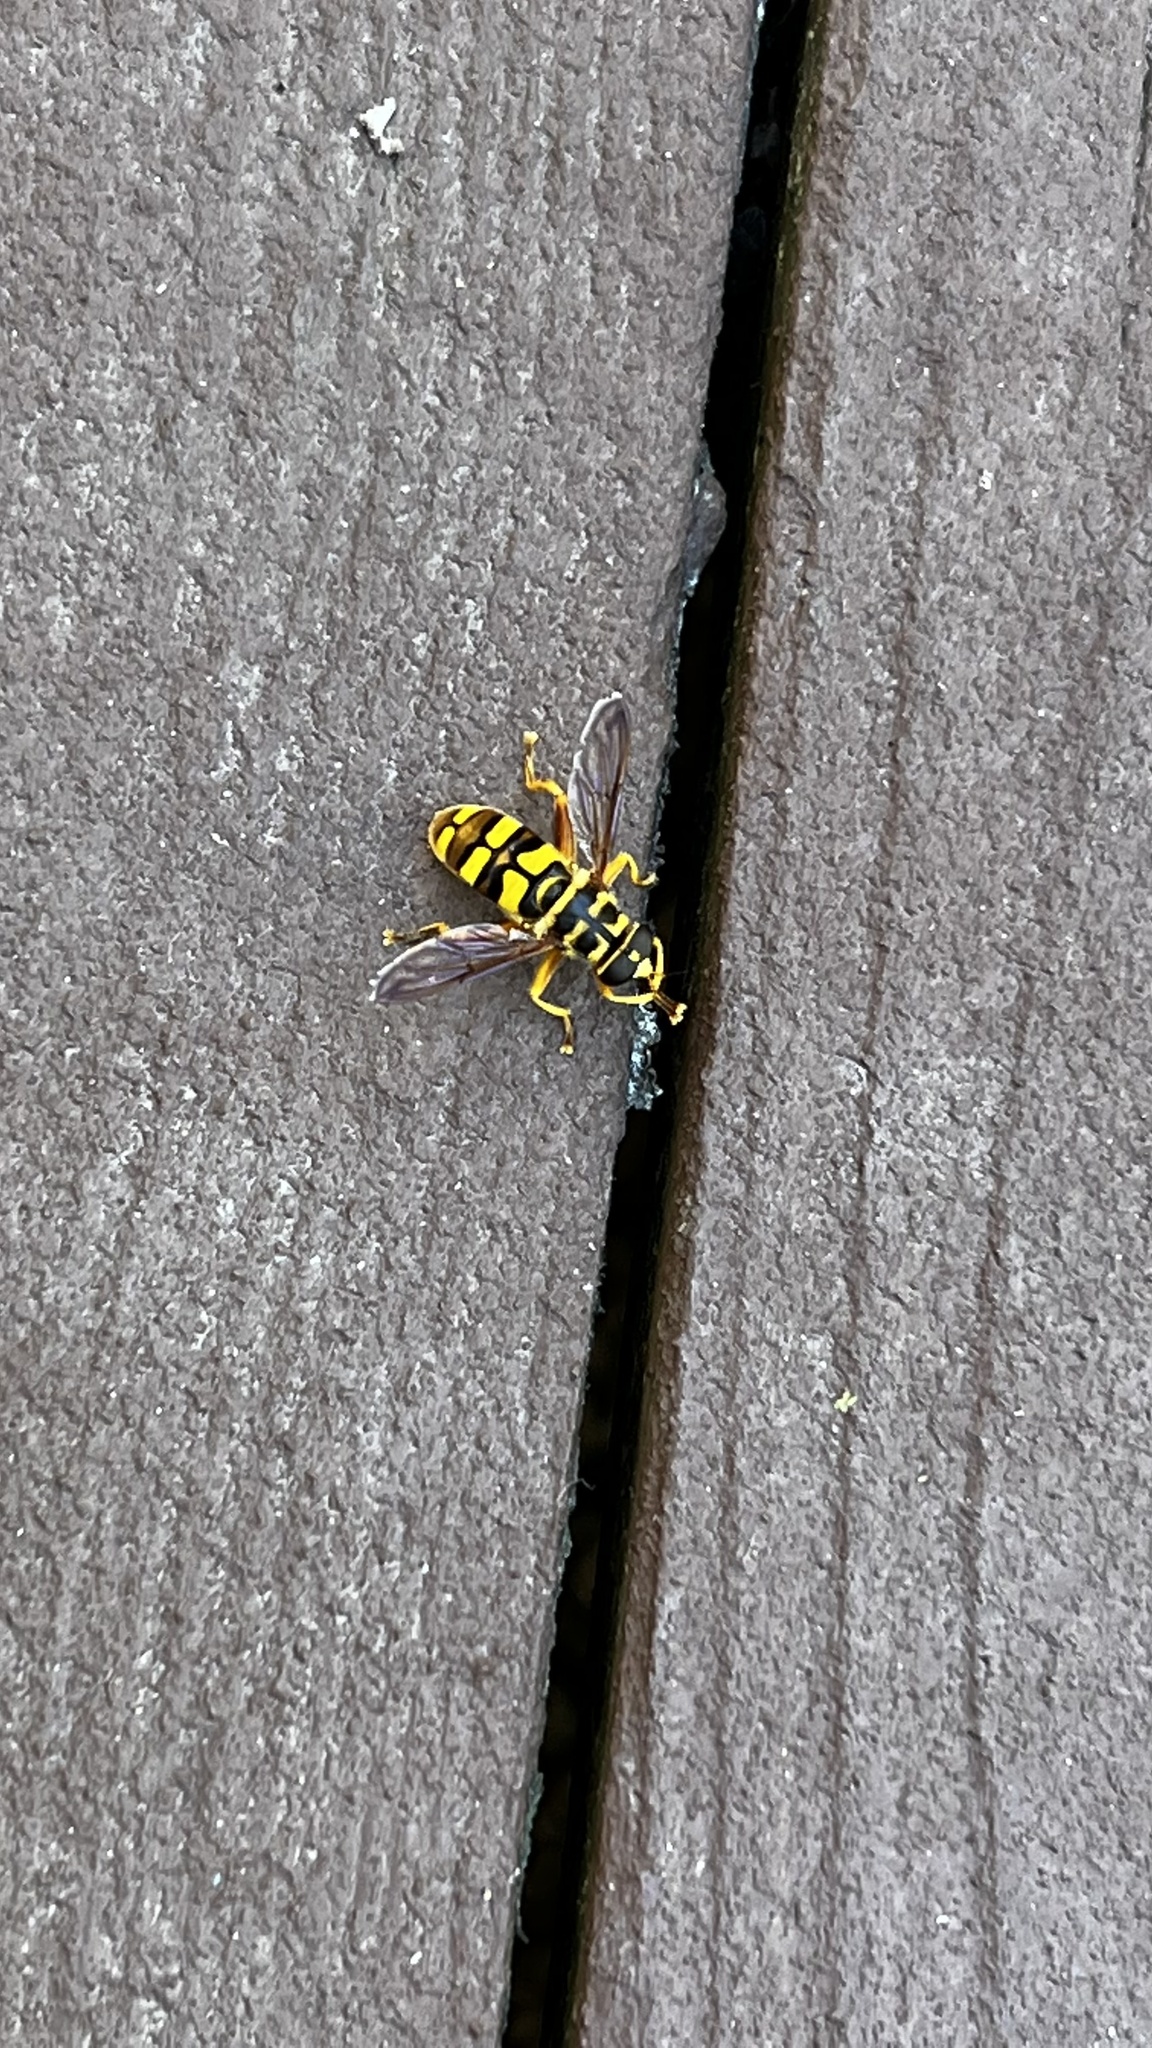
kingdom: Animalia
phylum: Arthropoda
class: Insecta
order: Diptera
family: Syrphidae
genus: Milesia
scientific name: Milesia virginiensis
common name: Virginia giant
